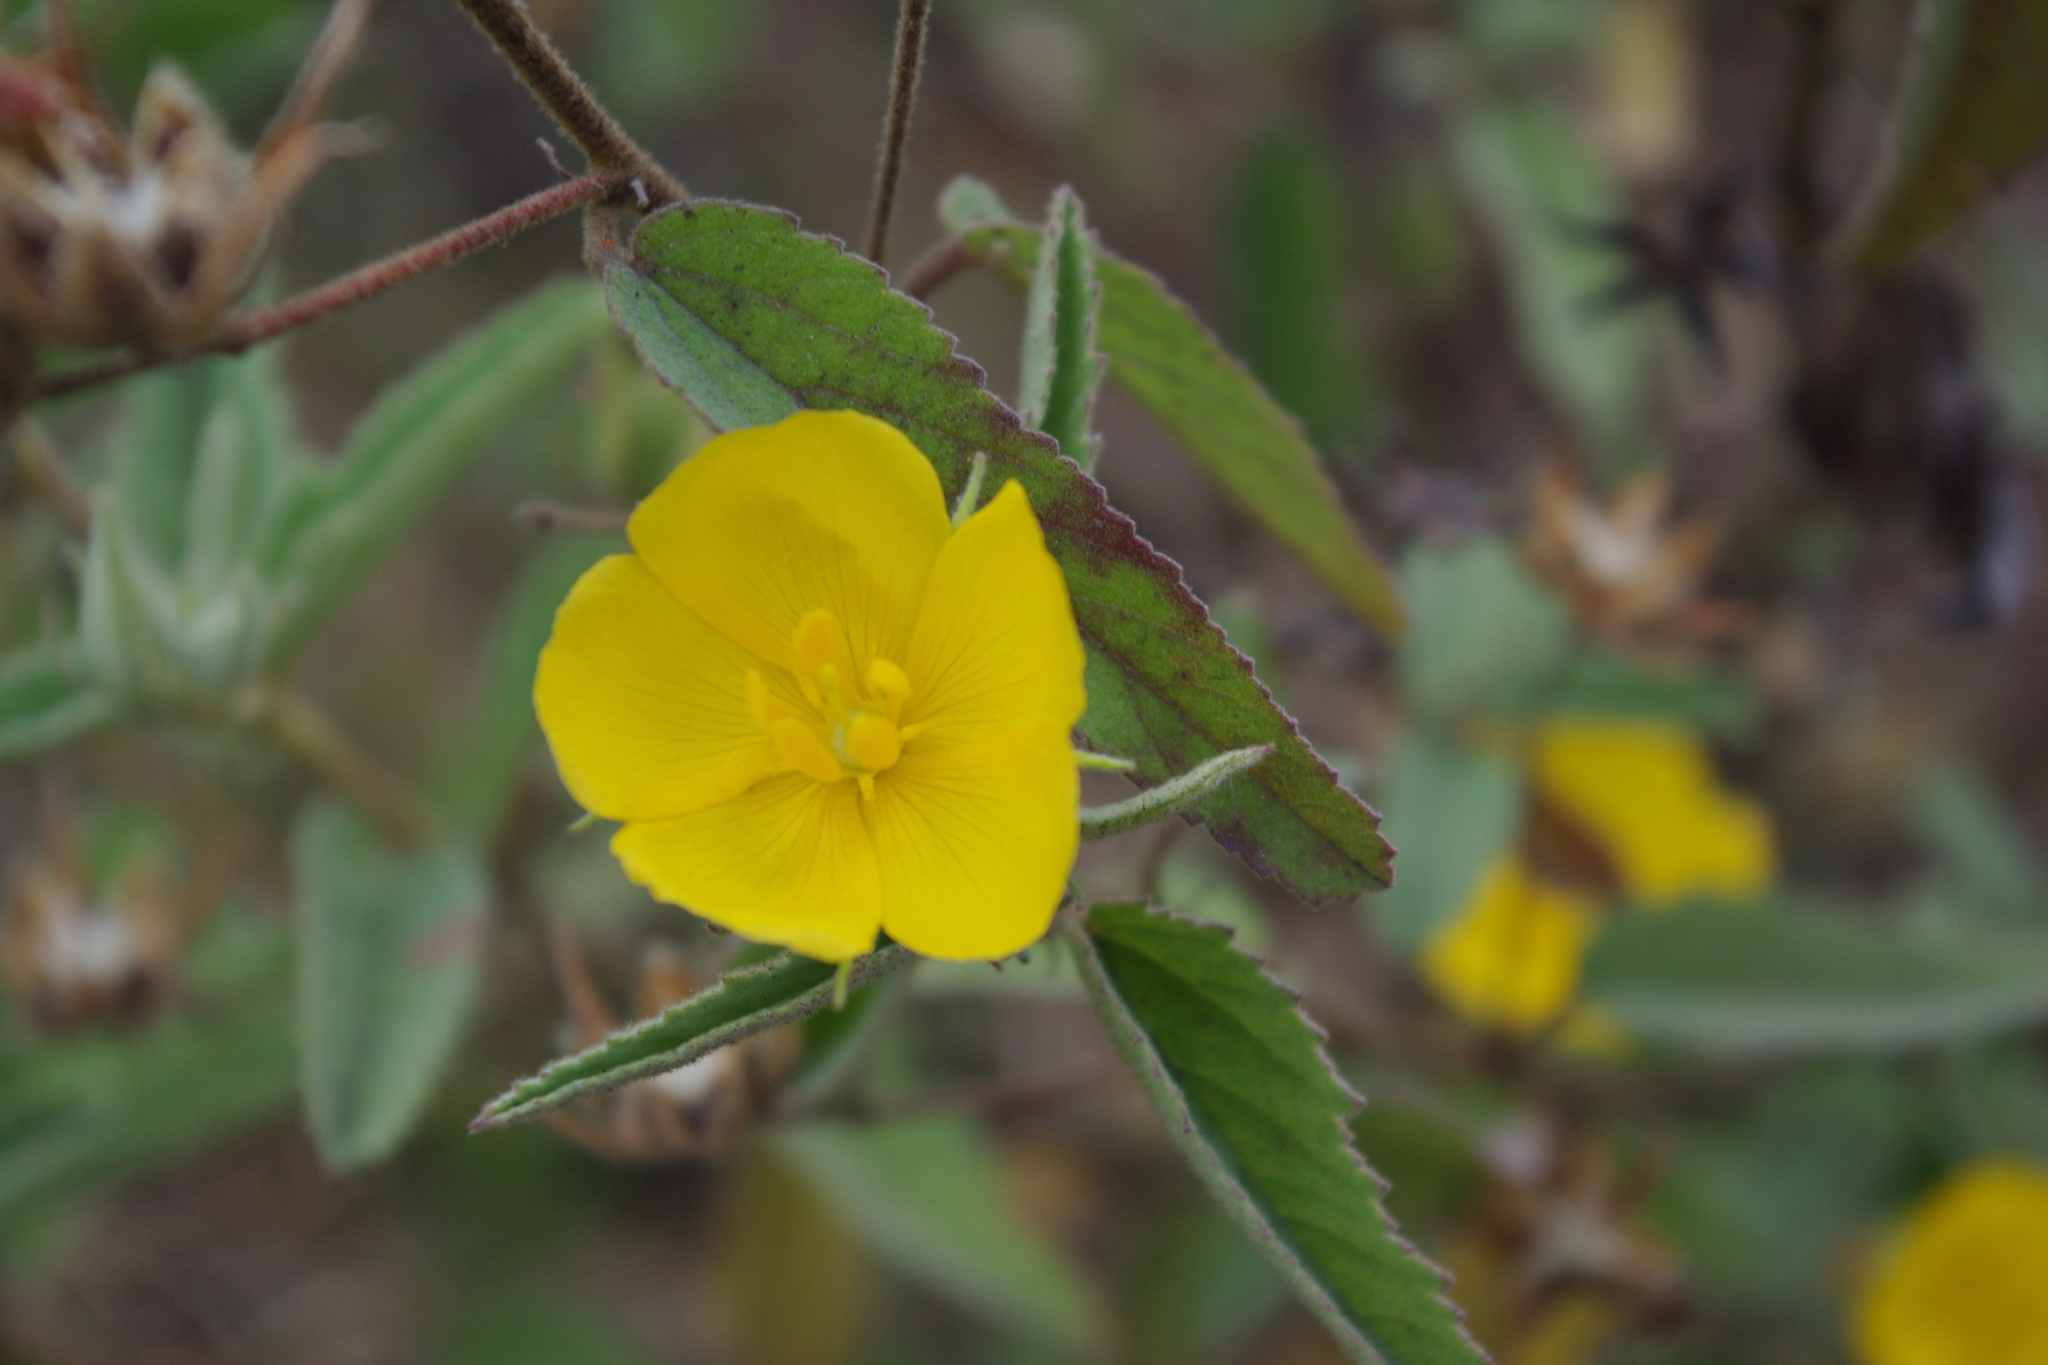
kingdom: Plantae
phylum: Tracheophyta
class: Magnoliopsida
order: Malvales
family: Malvaceae
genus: Melhania
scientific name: Melhania oblongifolia
